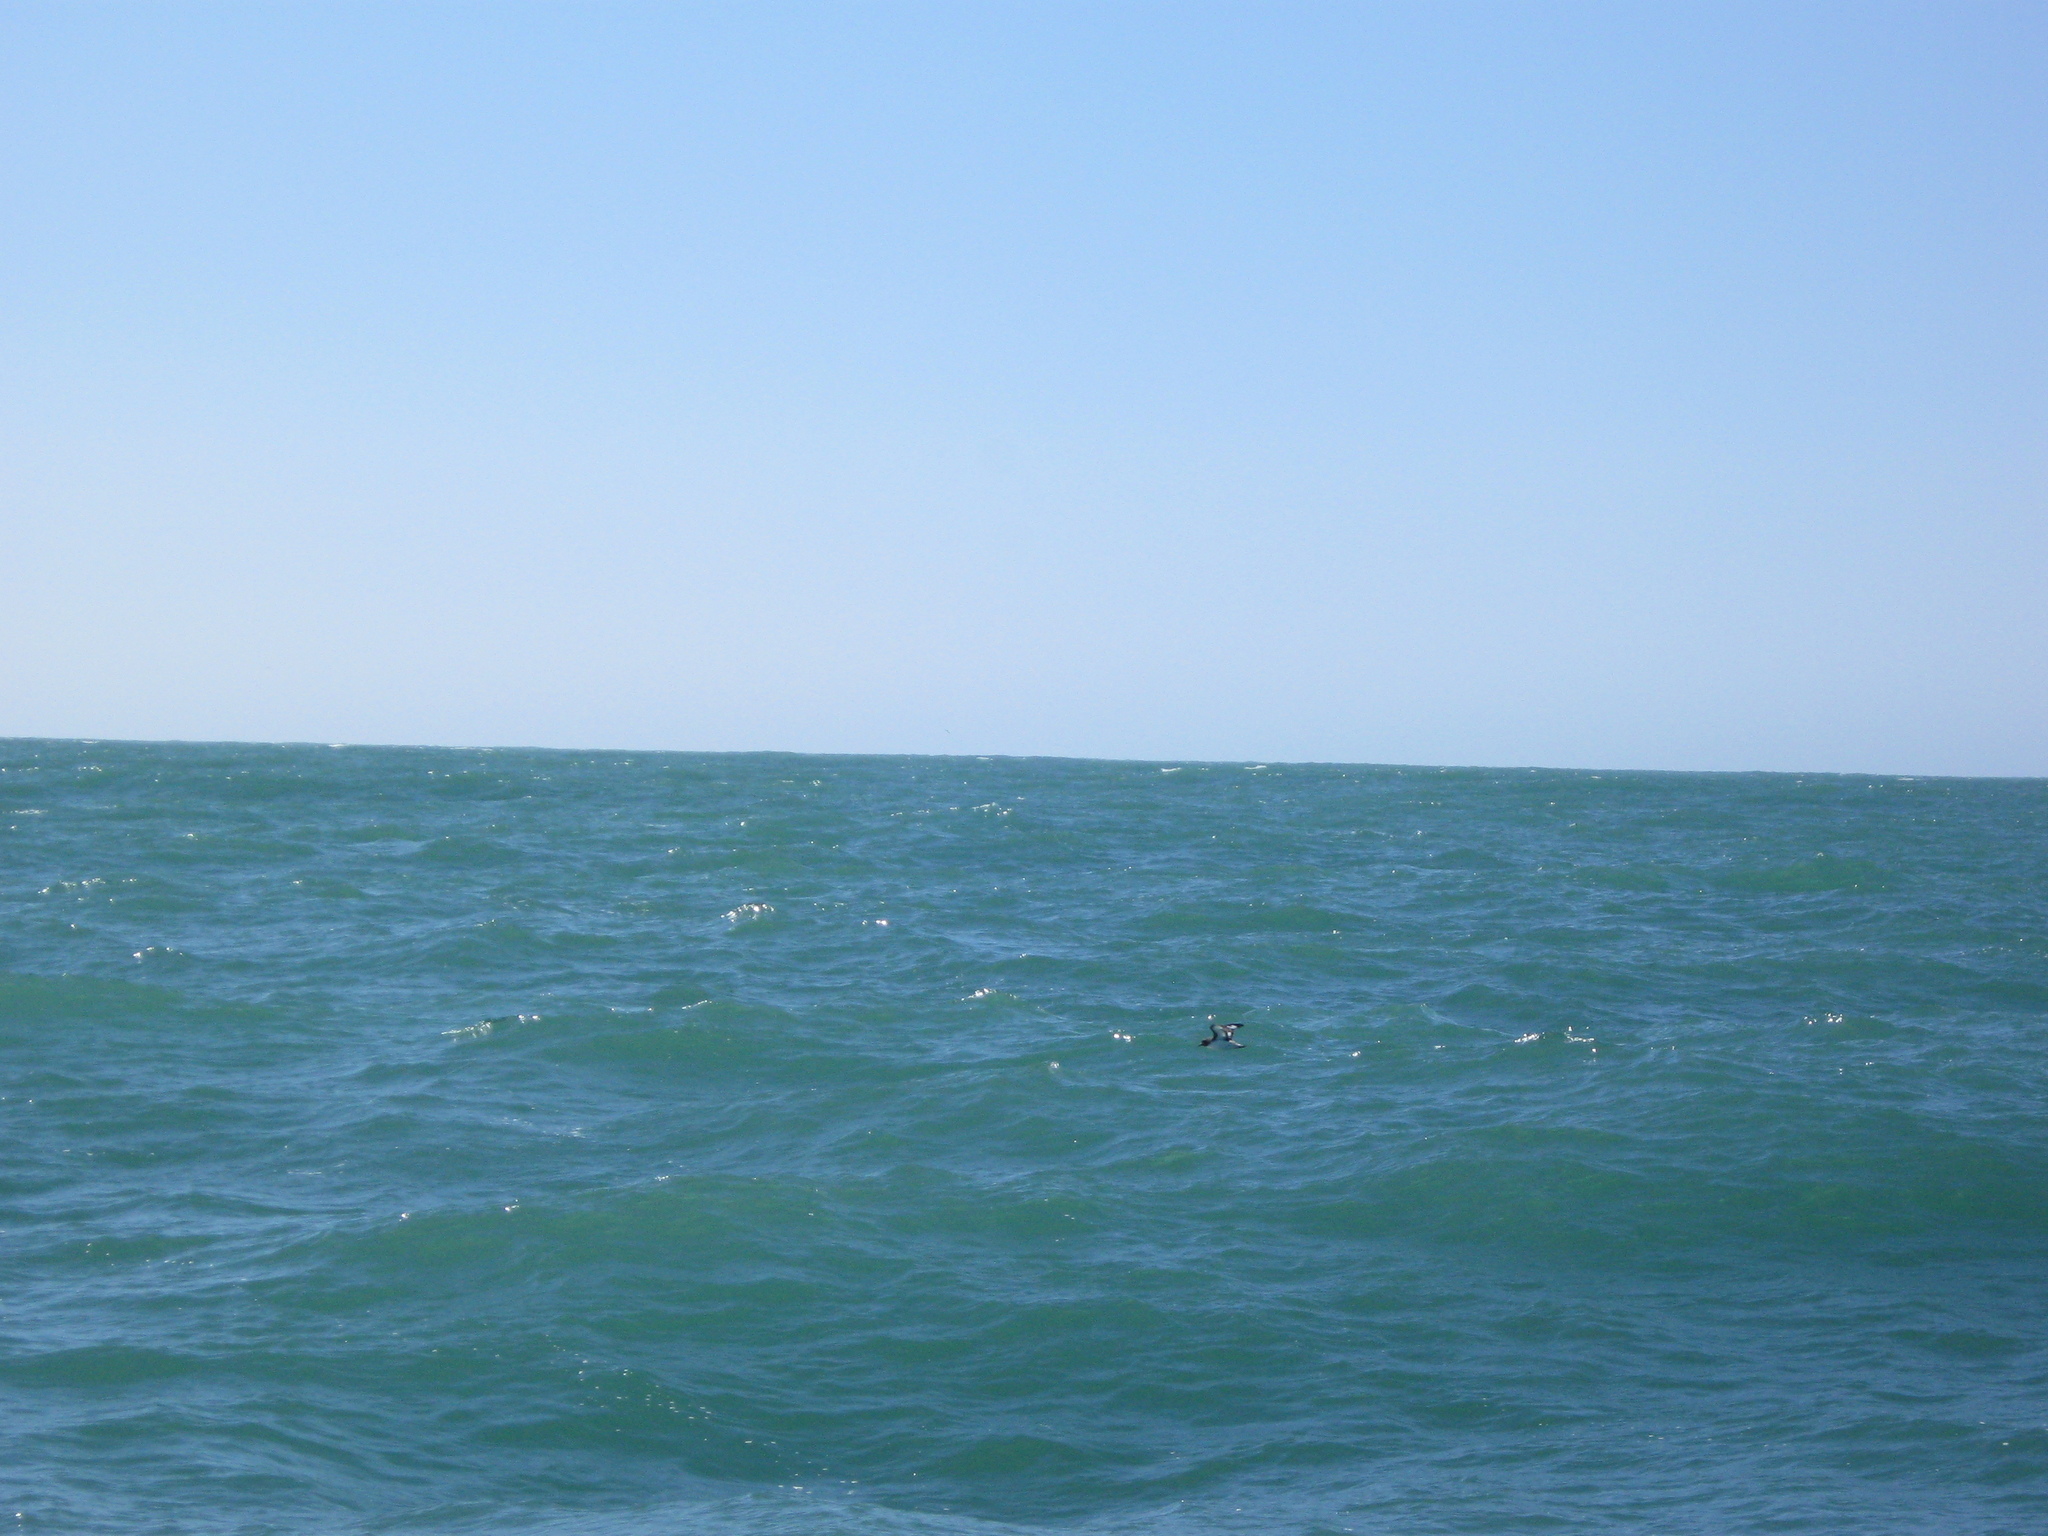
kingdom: Animalia
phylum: Chordata
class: Aves
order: Procellariiformes
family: Procellariidae
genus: Daption
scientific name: Daption capense
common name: Cape petrel
